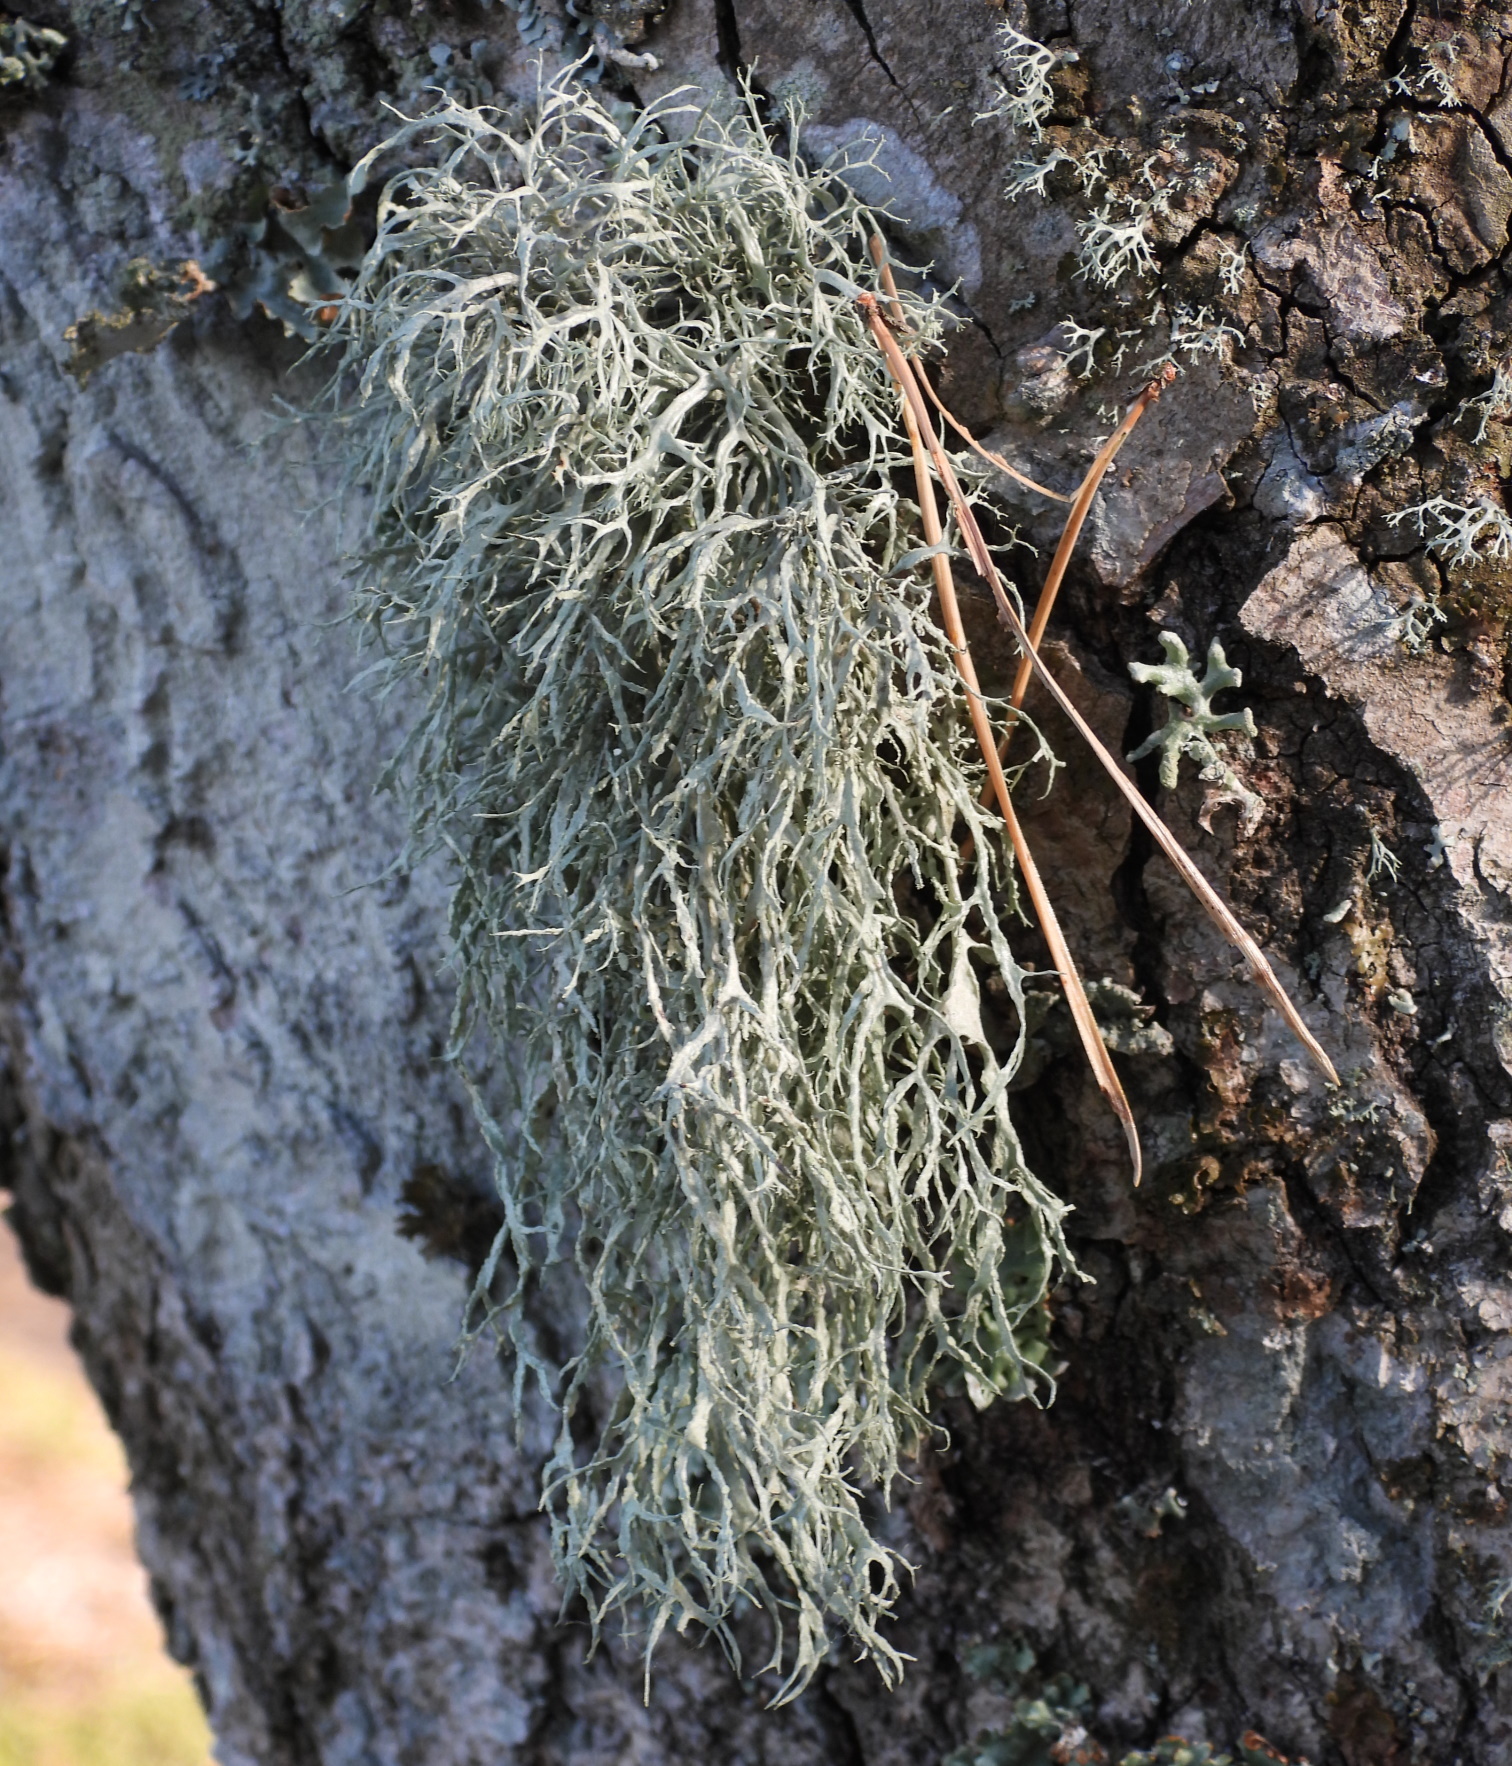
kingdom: Fungi
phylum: Ascomycota
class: Lecanoromycetes
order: Lecanorales
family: Ramalinaceae
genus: Ramalina
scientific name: Ramalina farinacea
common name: Farinose cartilage lichen
